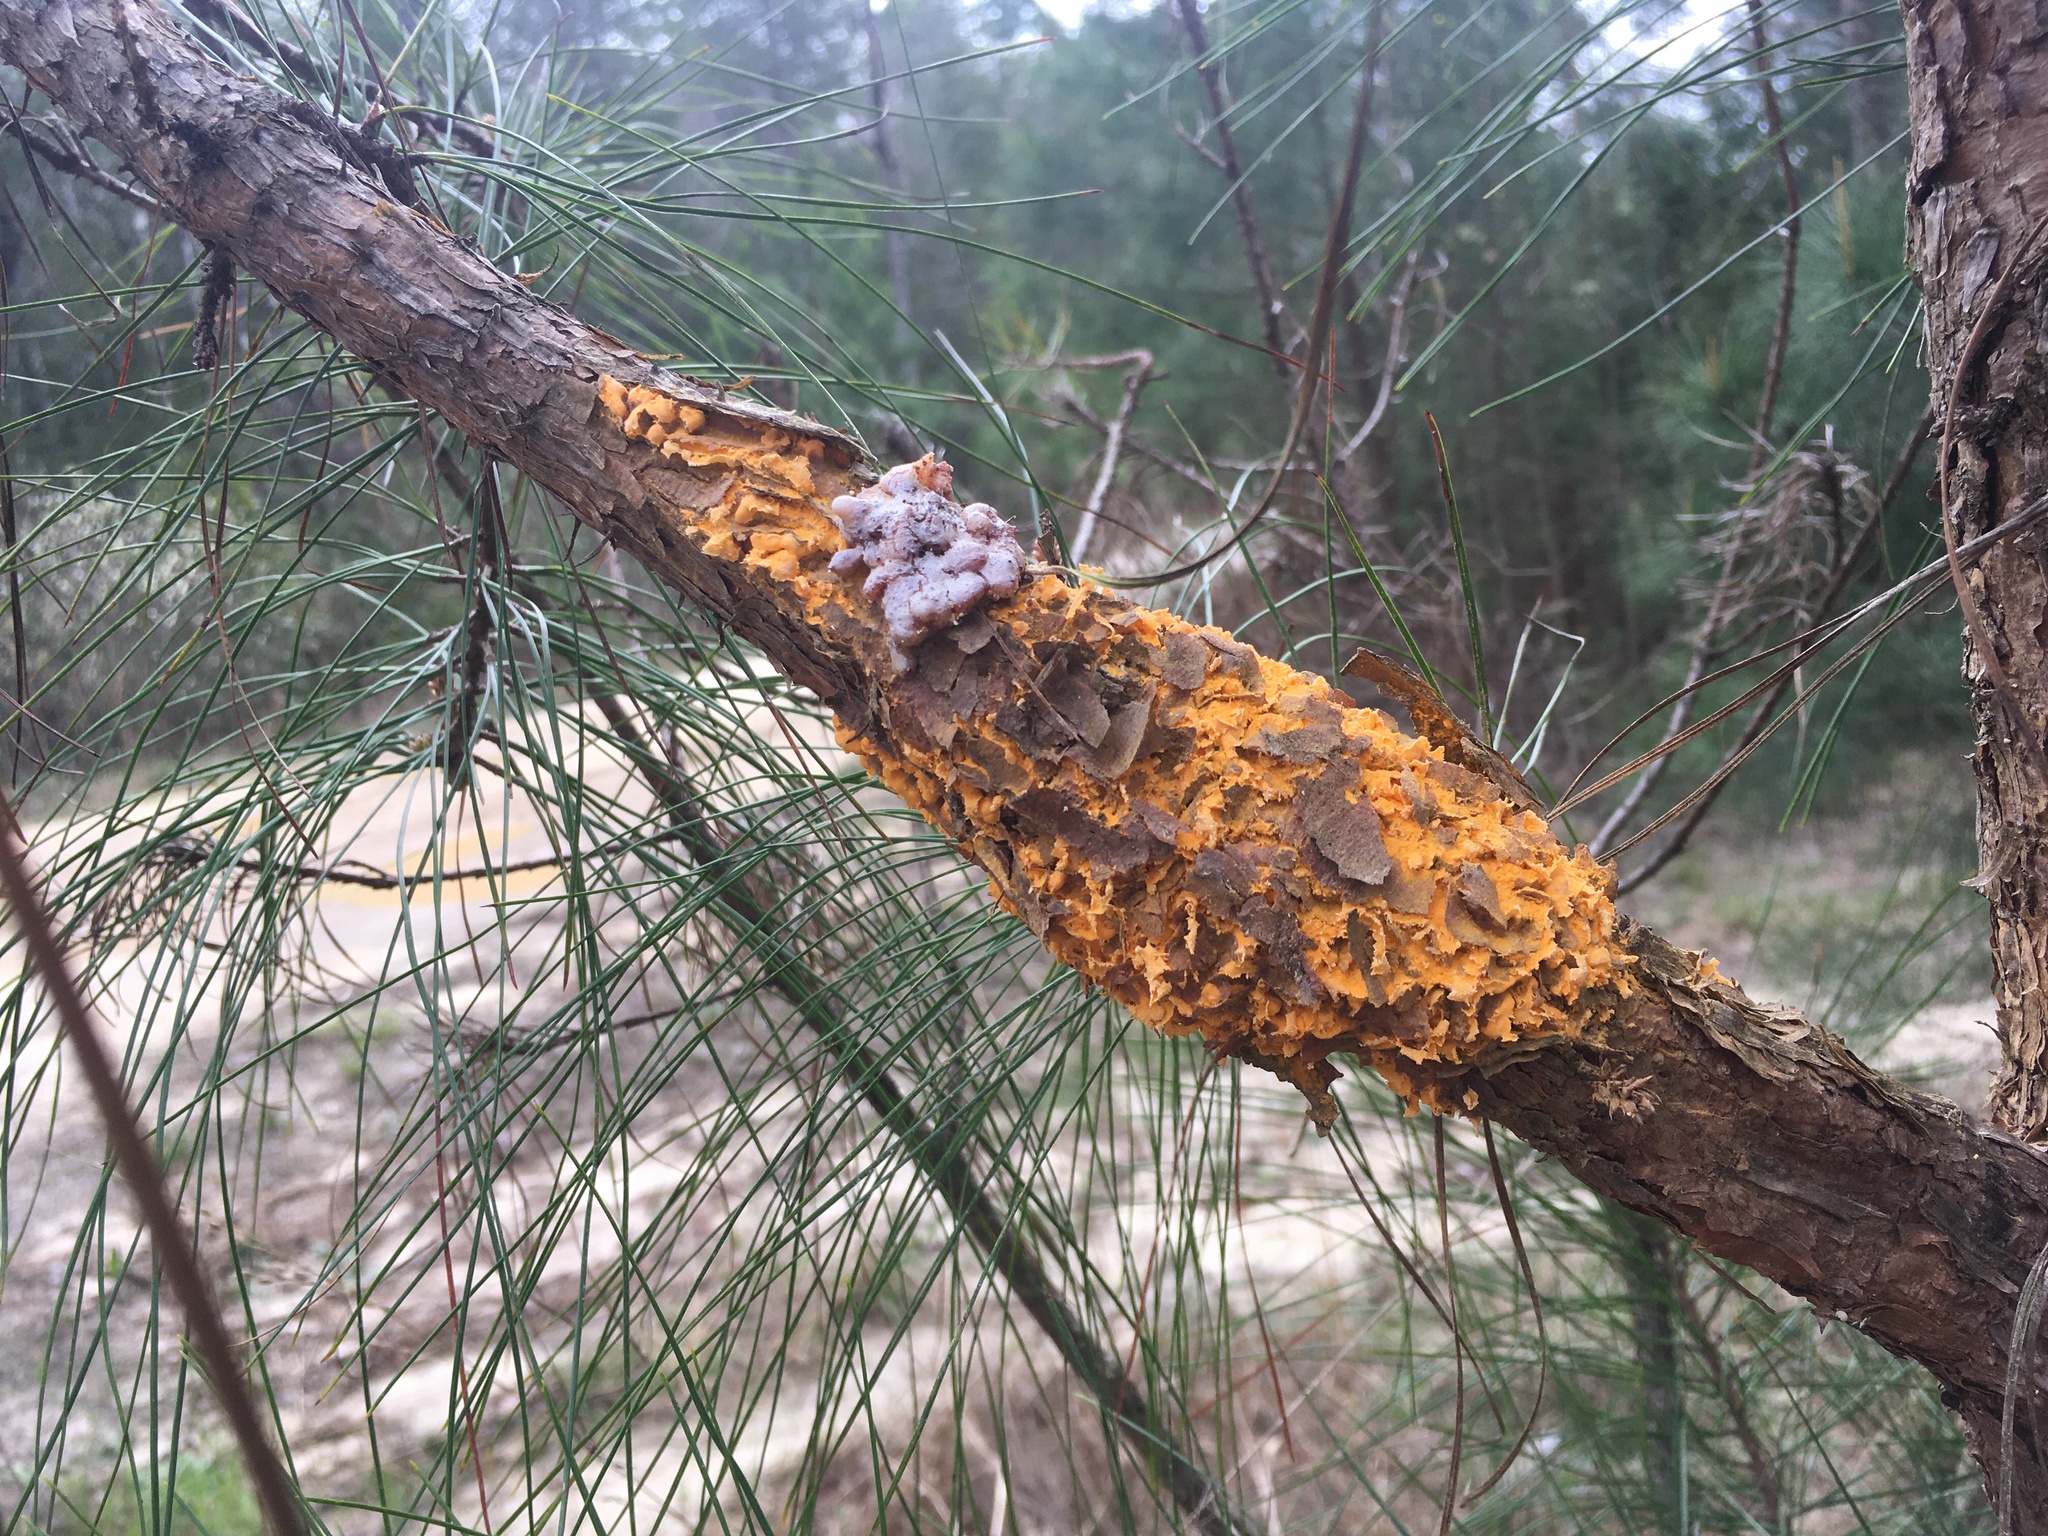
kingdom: Fungi
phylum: Basidiomycota
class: Pucciniomycetes
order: Pucciniales
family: Cronartiaceae
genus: Cronartium
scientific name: Cronartium fusiforme
